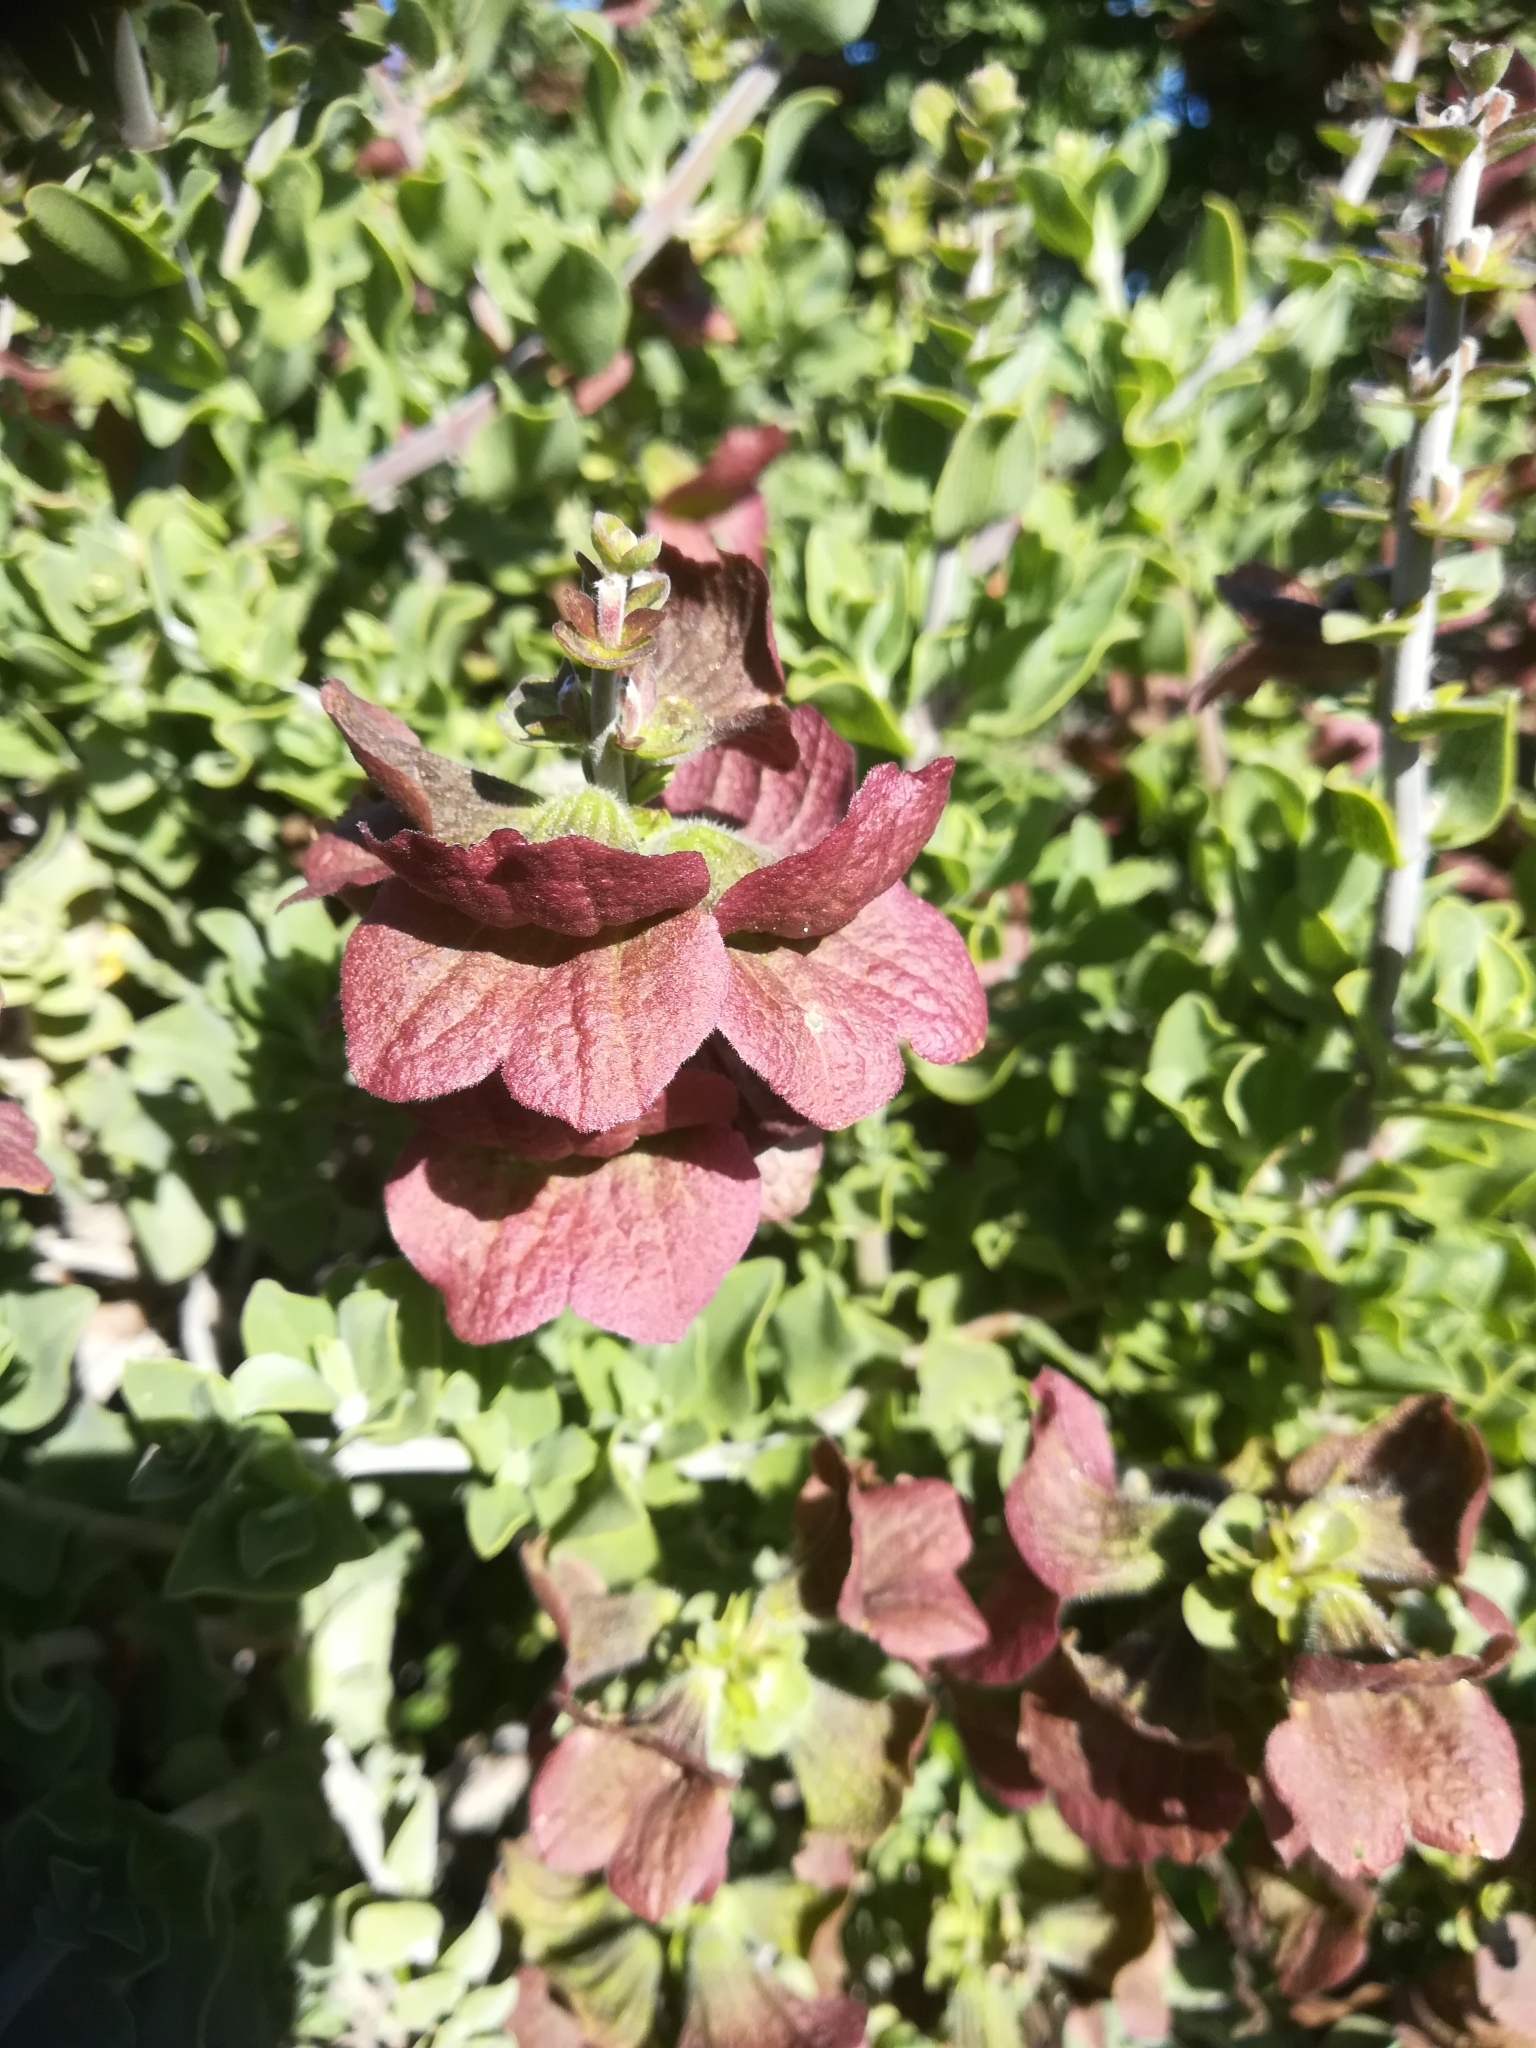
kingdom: Plantae
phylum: Tracheophyta
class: Magnoliopsida
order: Lamiales
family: Lamiaceae
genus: Salvia
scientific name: Salvia aurea
